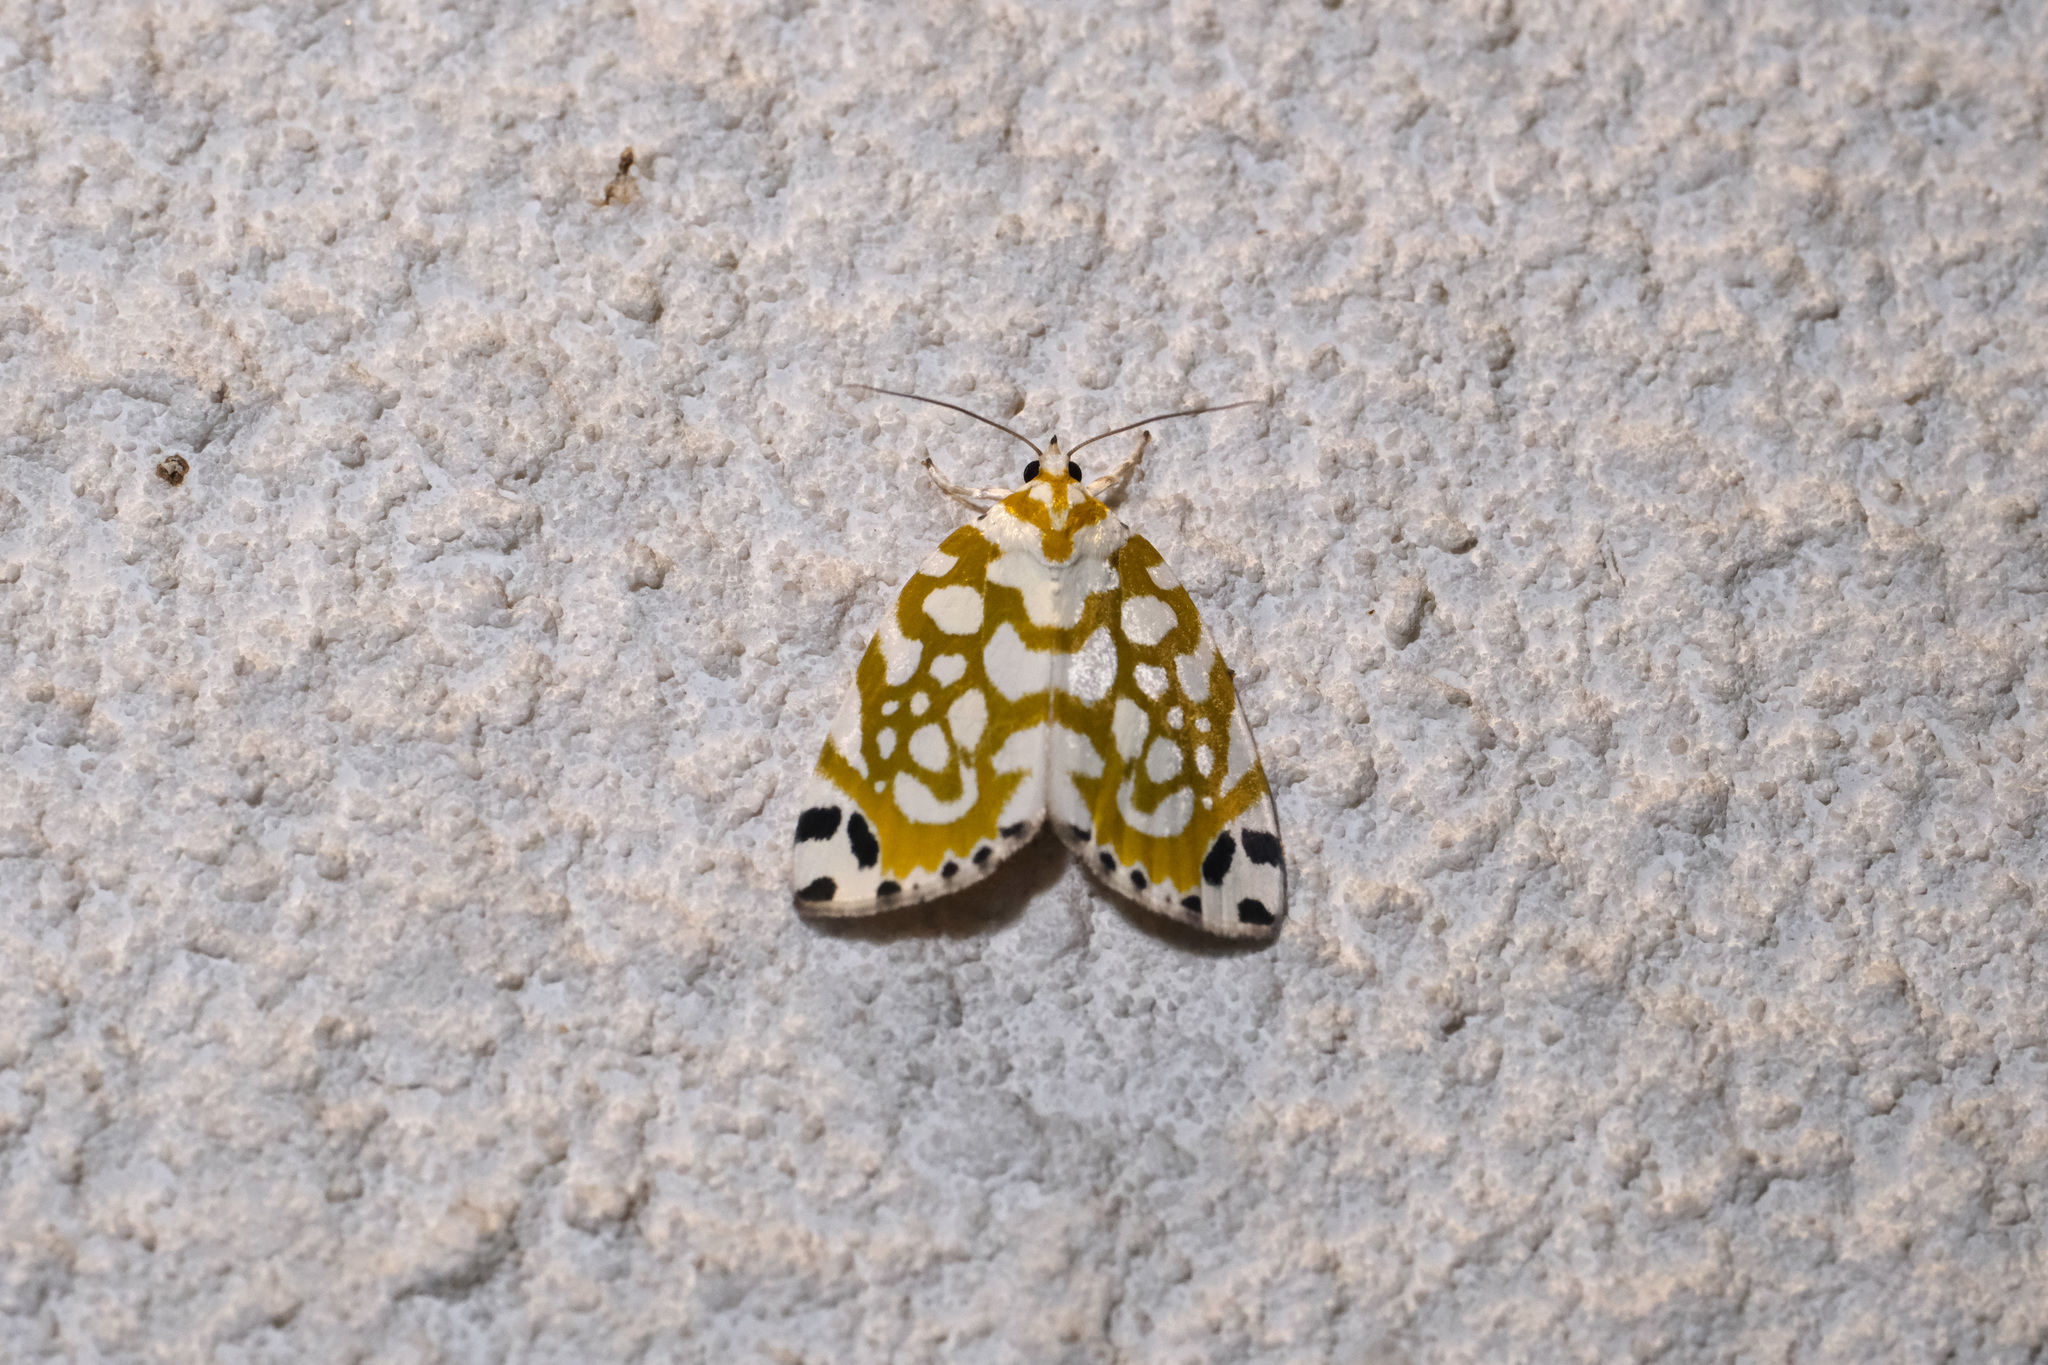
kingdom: Animalia
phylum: Arthropoda
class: Insecta
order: Lepidoptera
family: Nolidae
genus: Sinna
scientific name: Sinna extrema
